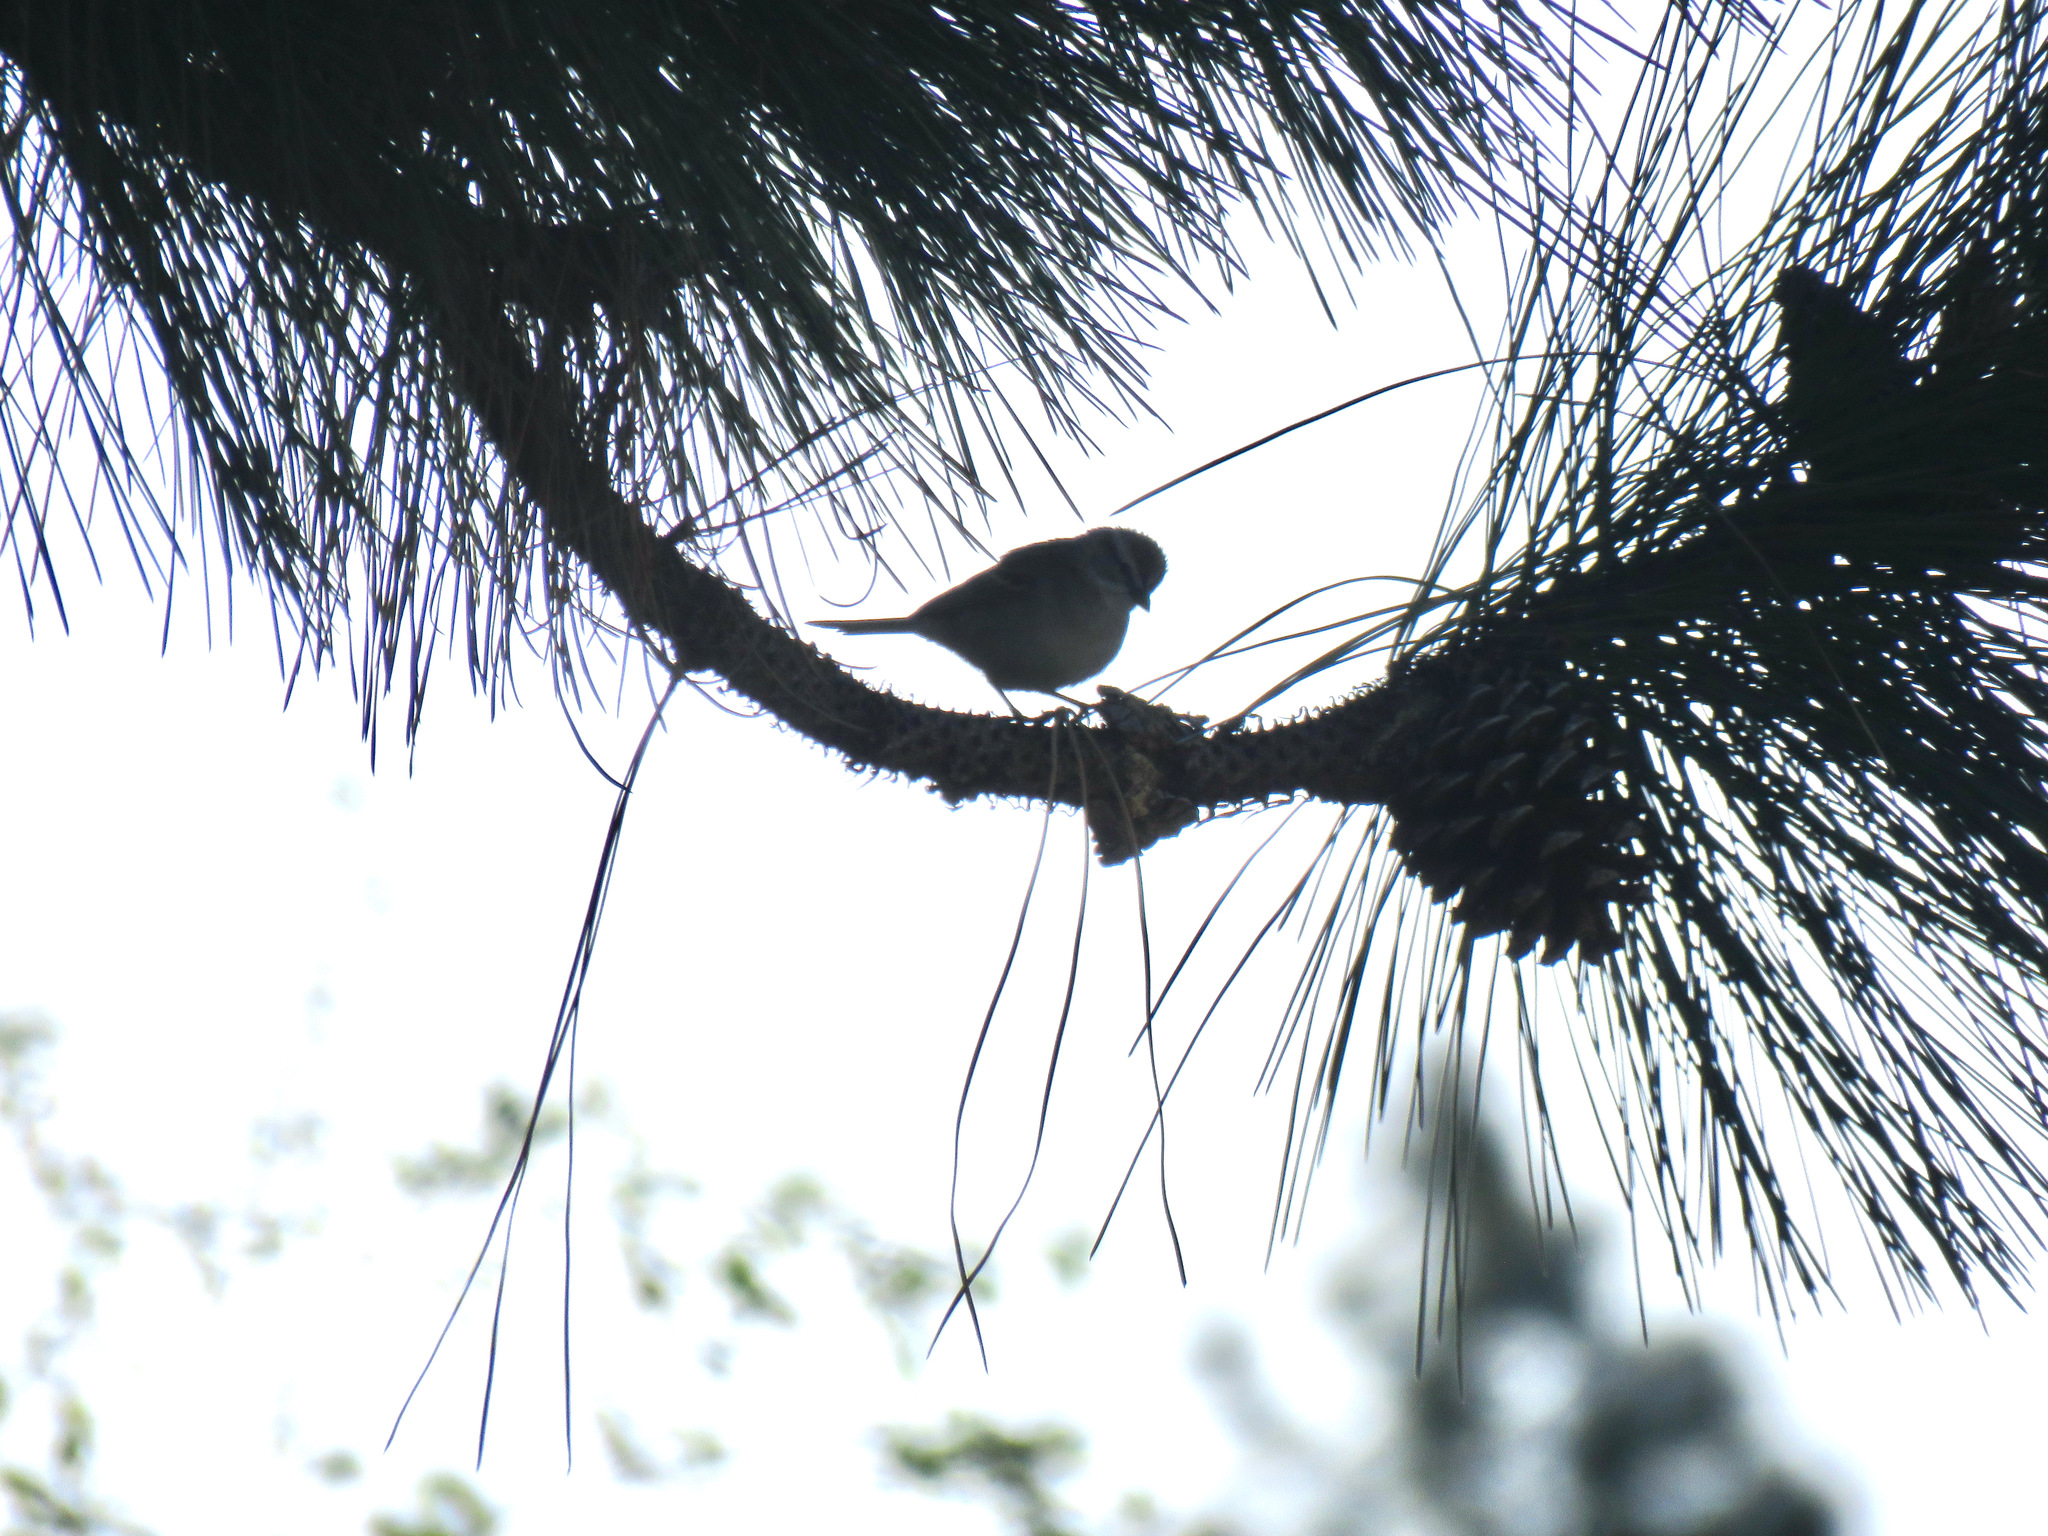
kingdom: Animalia
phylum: Chordata
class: Aves
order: Passeriformes
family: Passerellidae
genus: Spizella
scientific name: Spizella passerina
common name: Chipping sparrow
